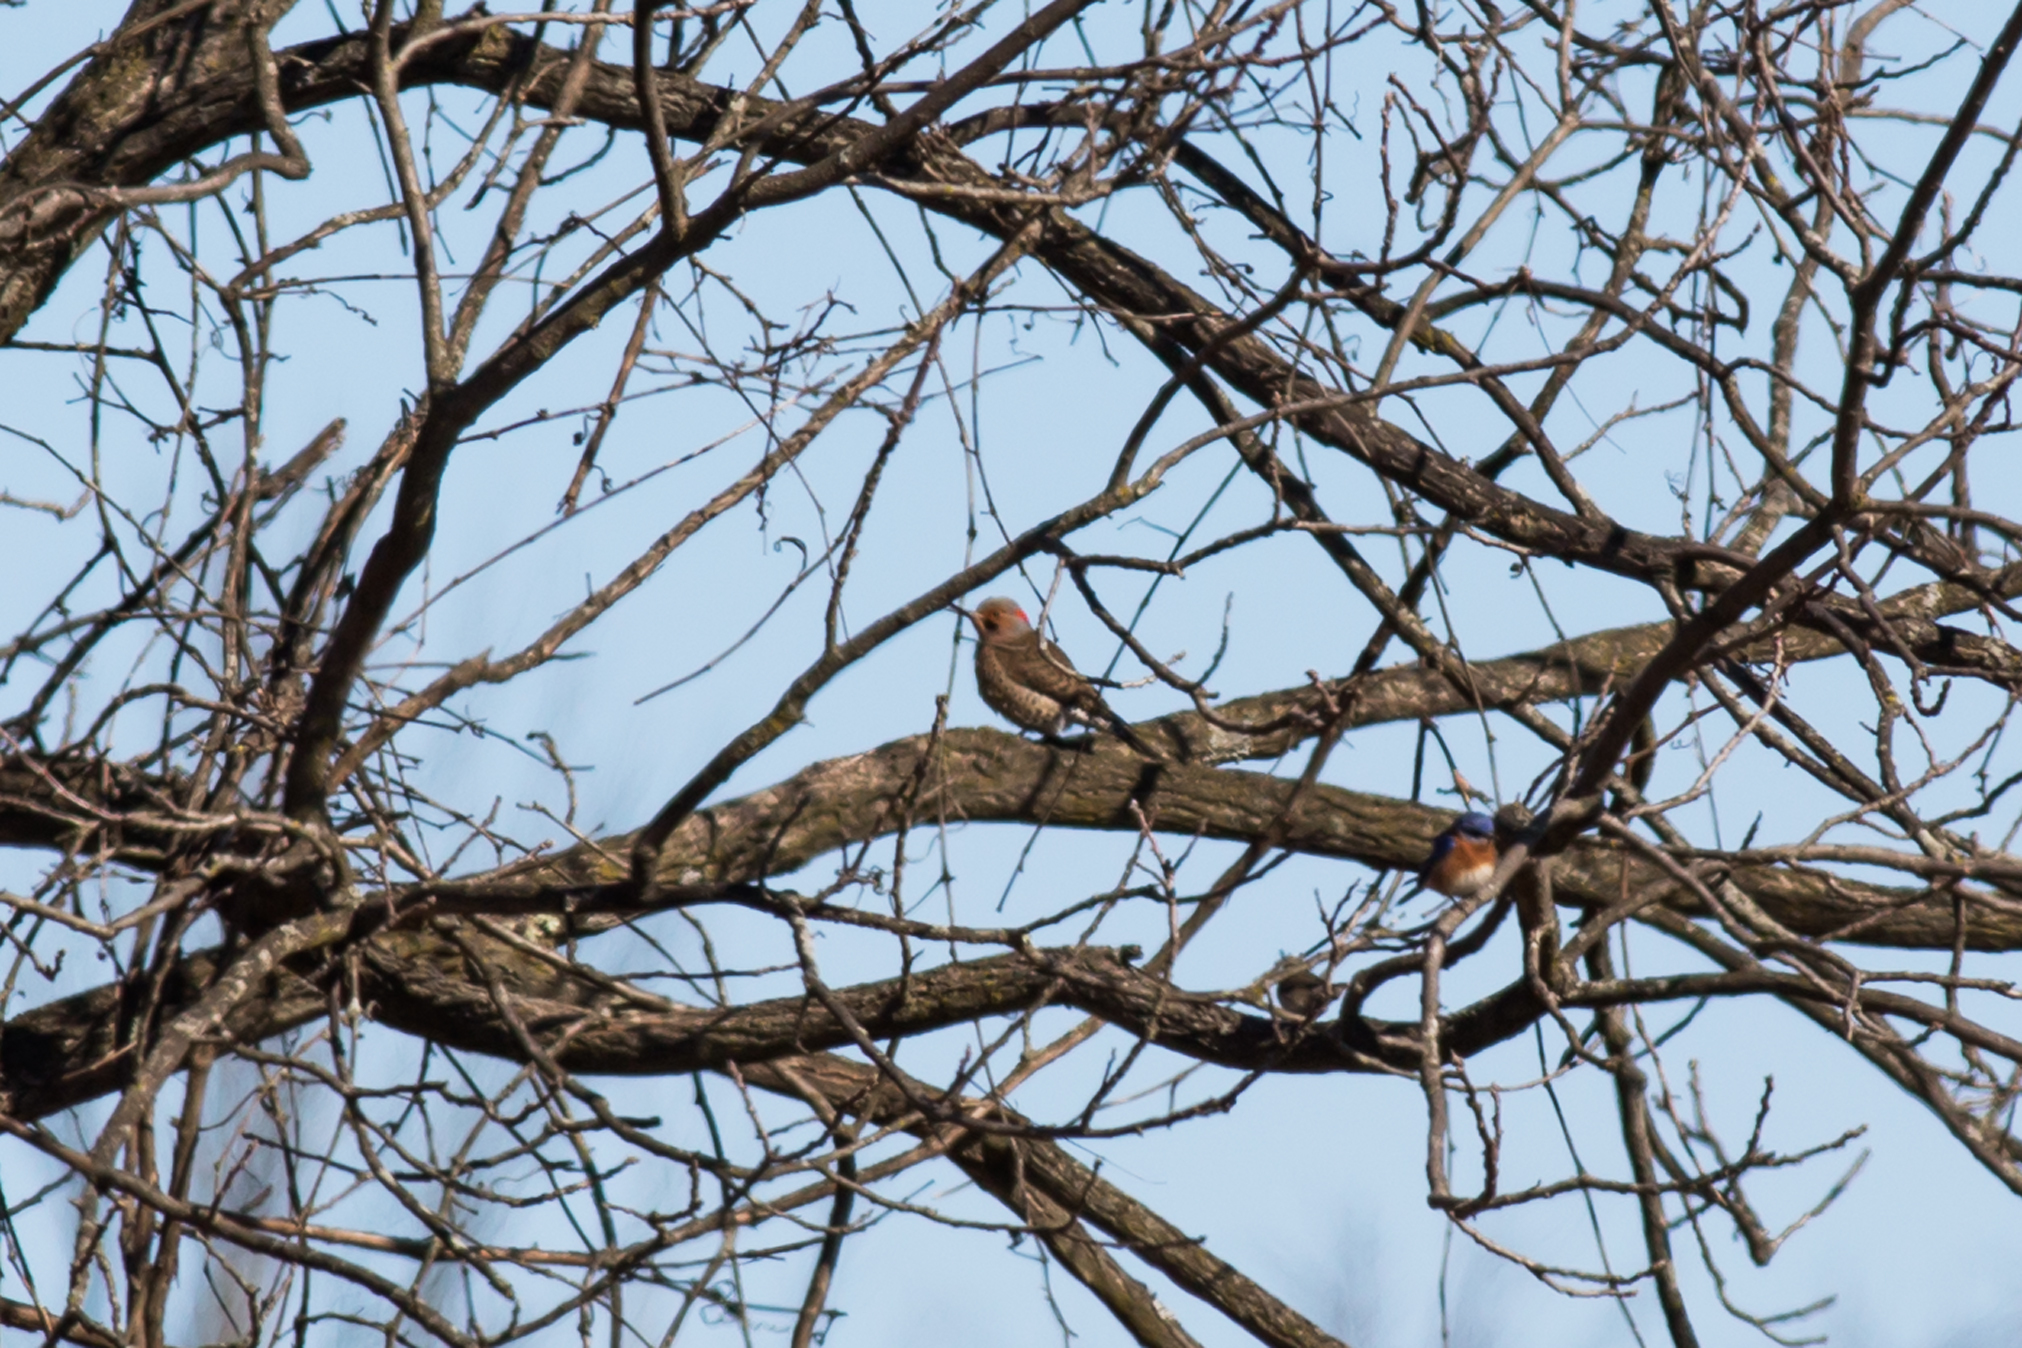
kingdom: Animalia
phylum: Chordata
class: Aves
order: Piciformes
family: Picidae
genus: Colaptes
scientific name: Colaptes auratus
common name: Northern flicker
